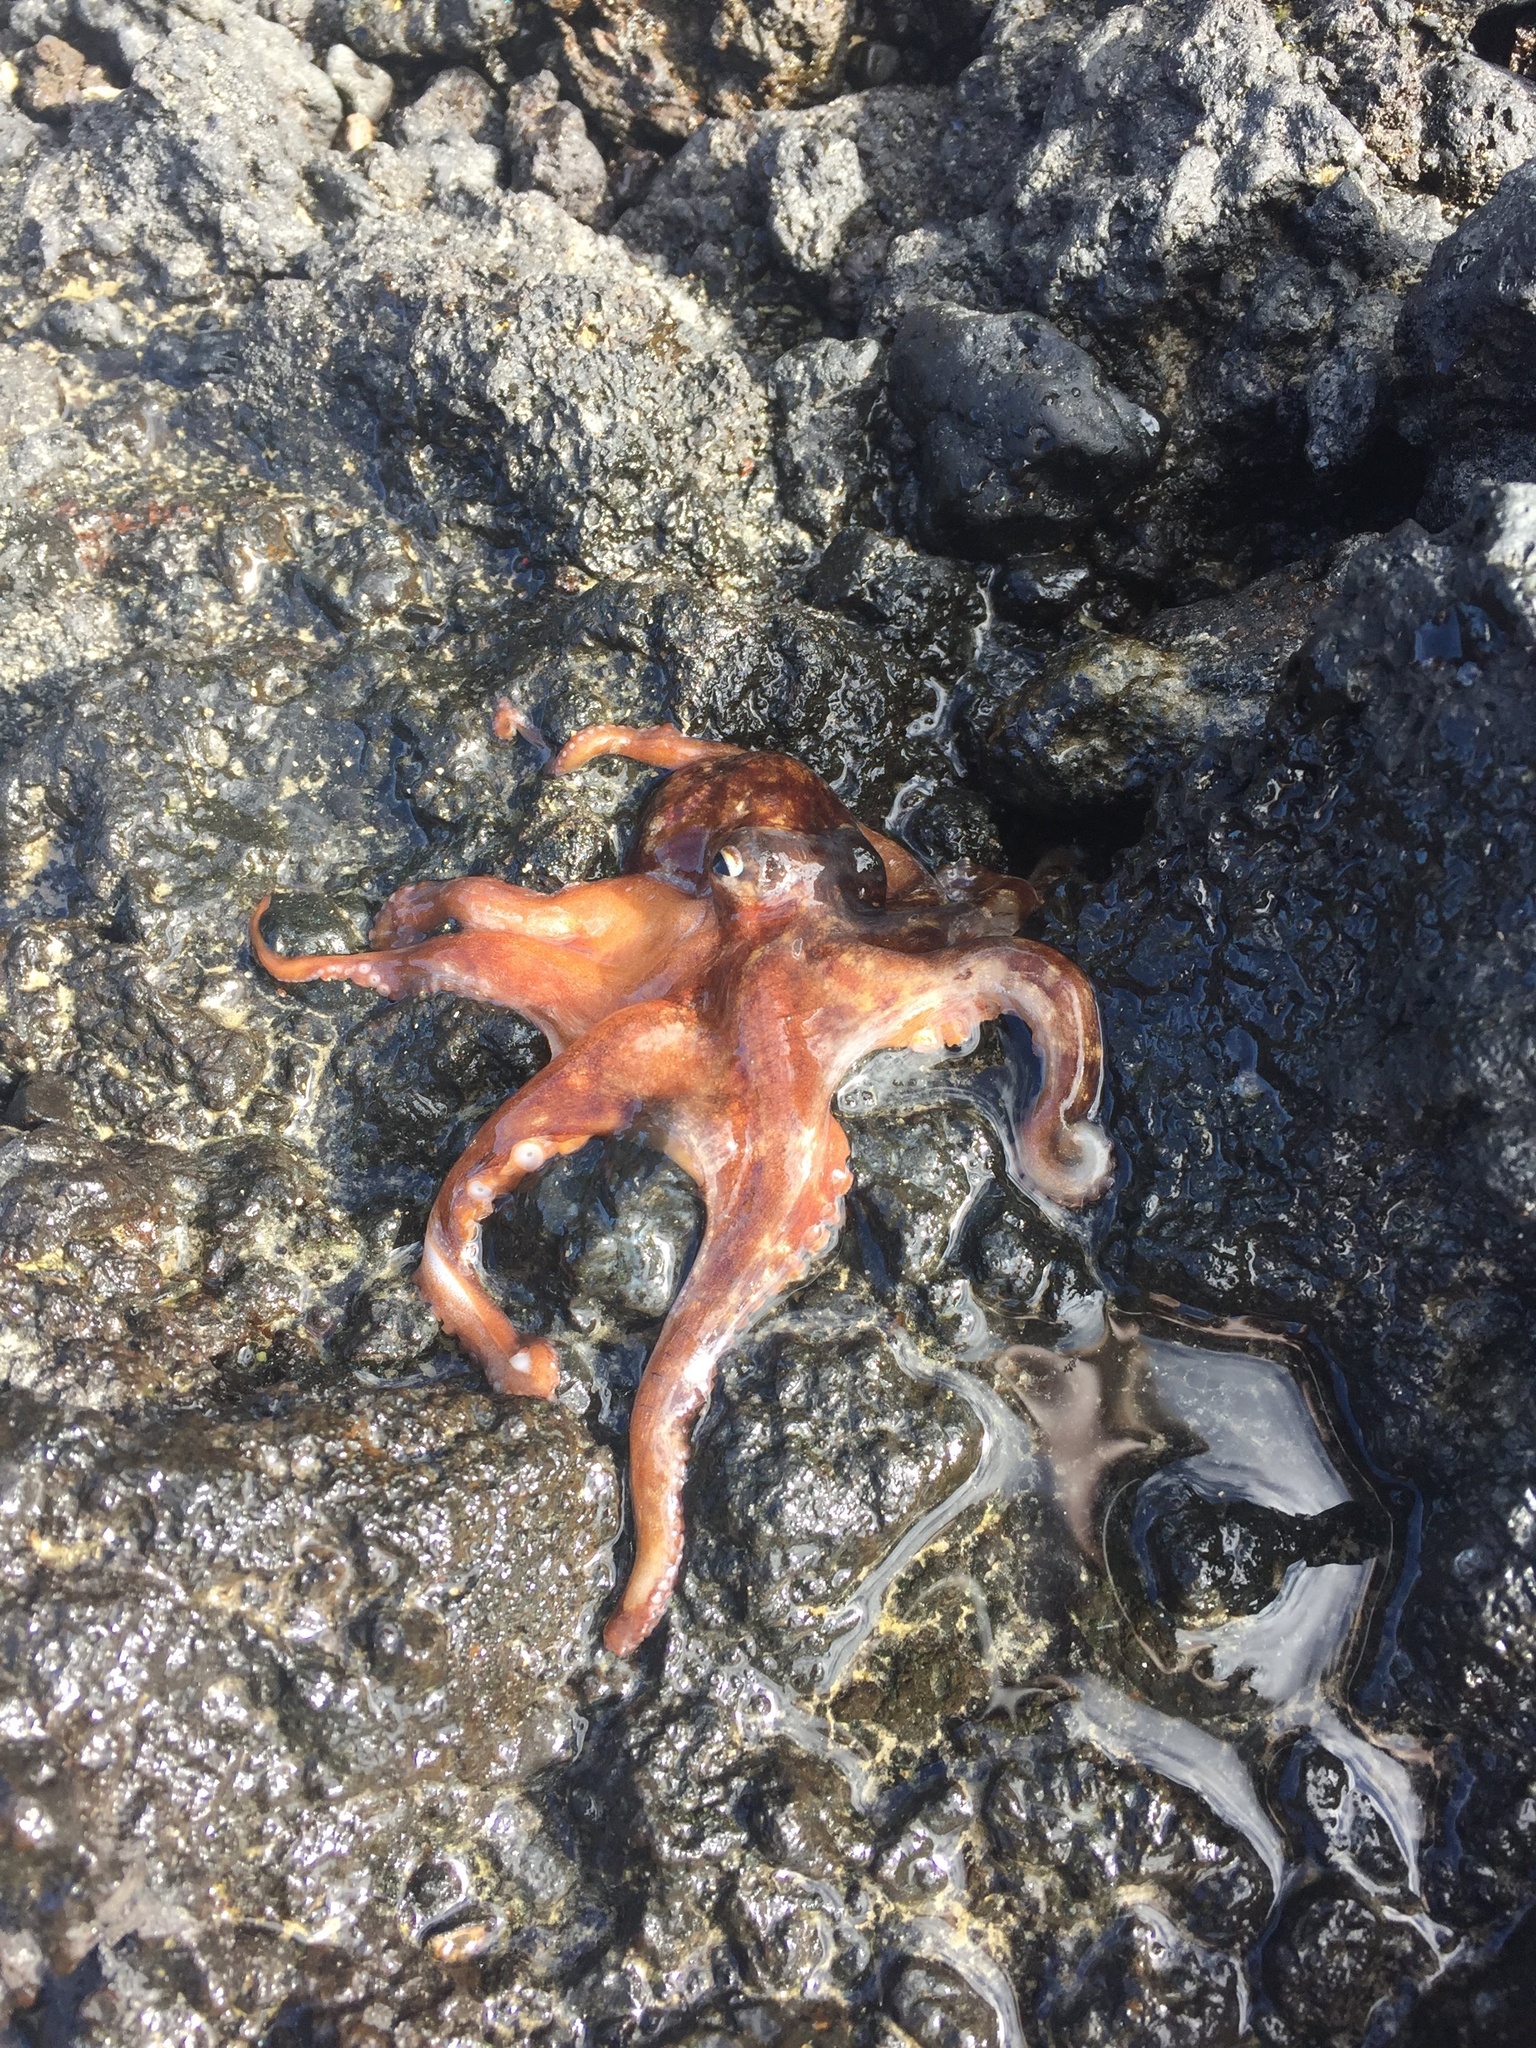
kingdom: Animalia
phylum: Mollusca
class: Cephalopoda
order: Octopoda
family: Octopodidae
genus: Octopus
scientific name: Octopus cyanea
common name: Cyane's octopus
